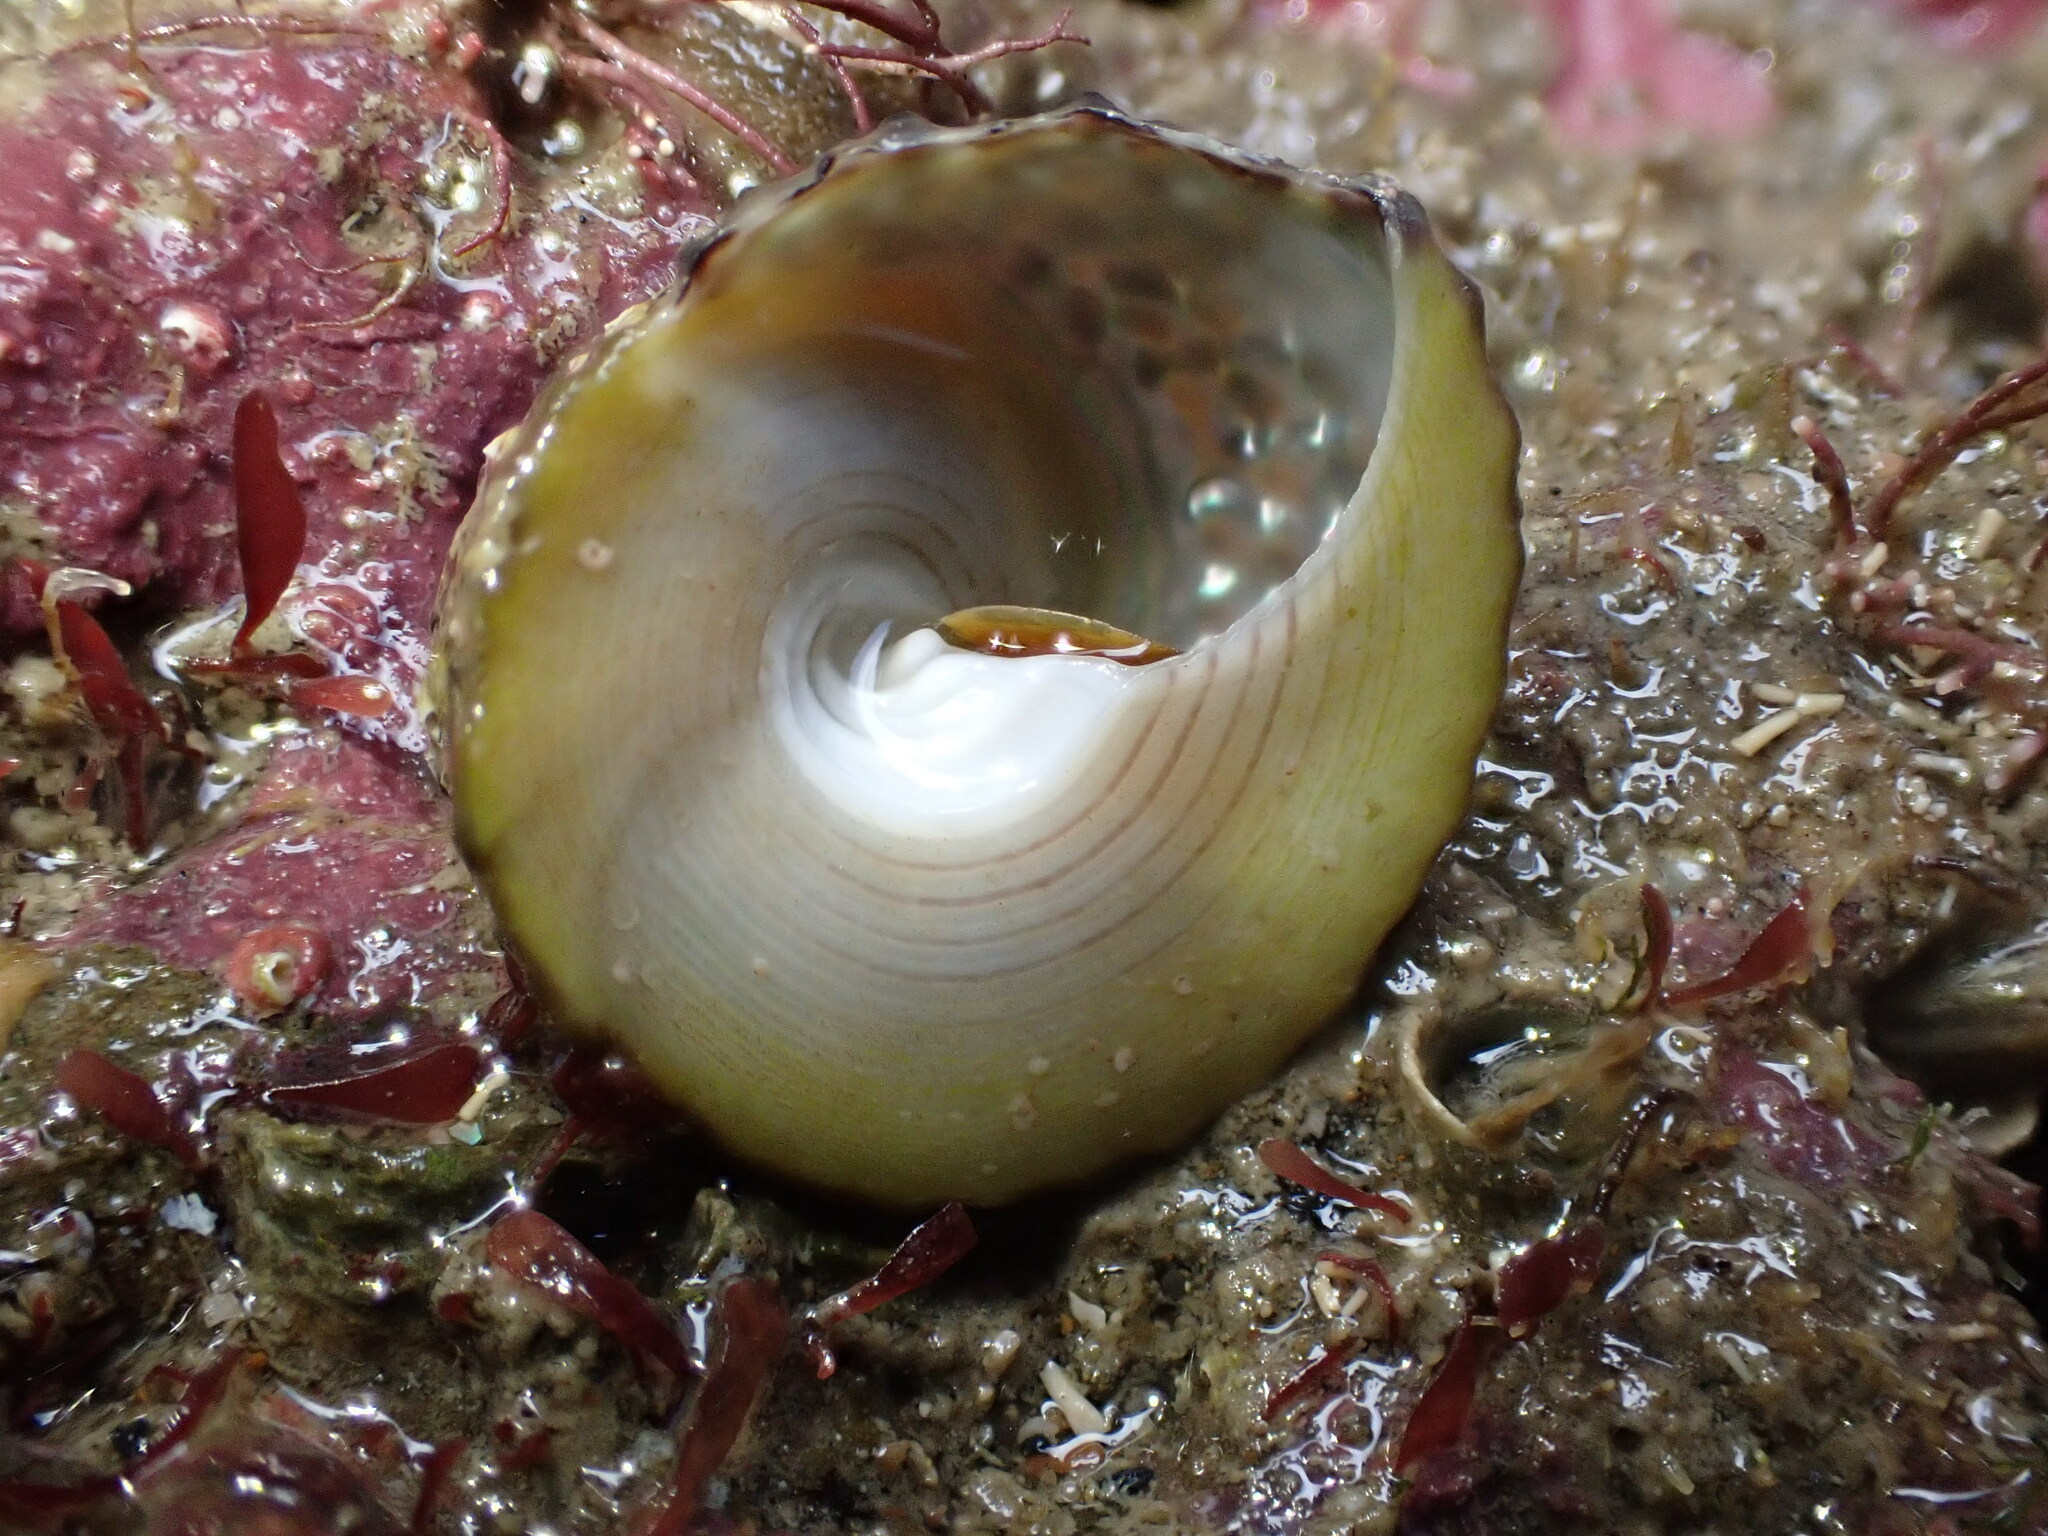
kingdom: Animalia
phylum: Mollusca
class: Gastropoda
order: Trochida
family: Trochidae
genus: Coelotrochus
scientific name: Coelotrochus viridis
